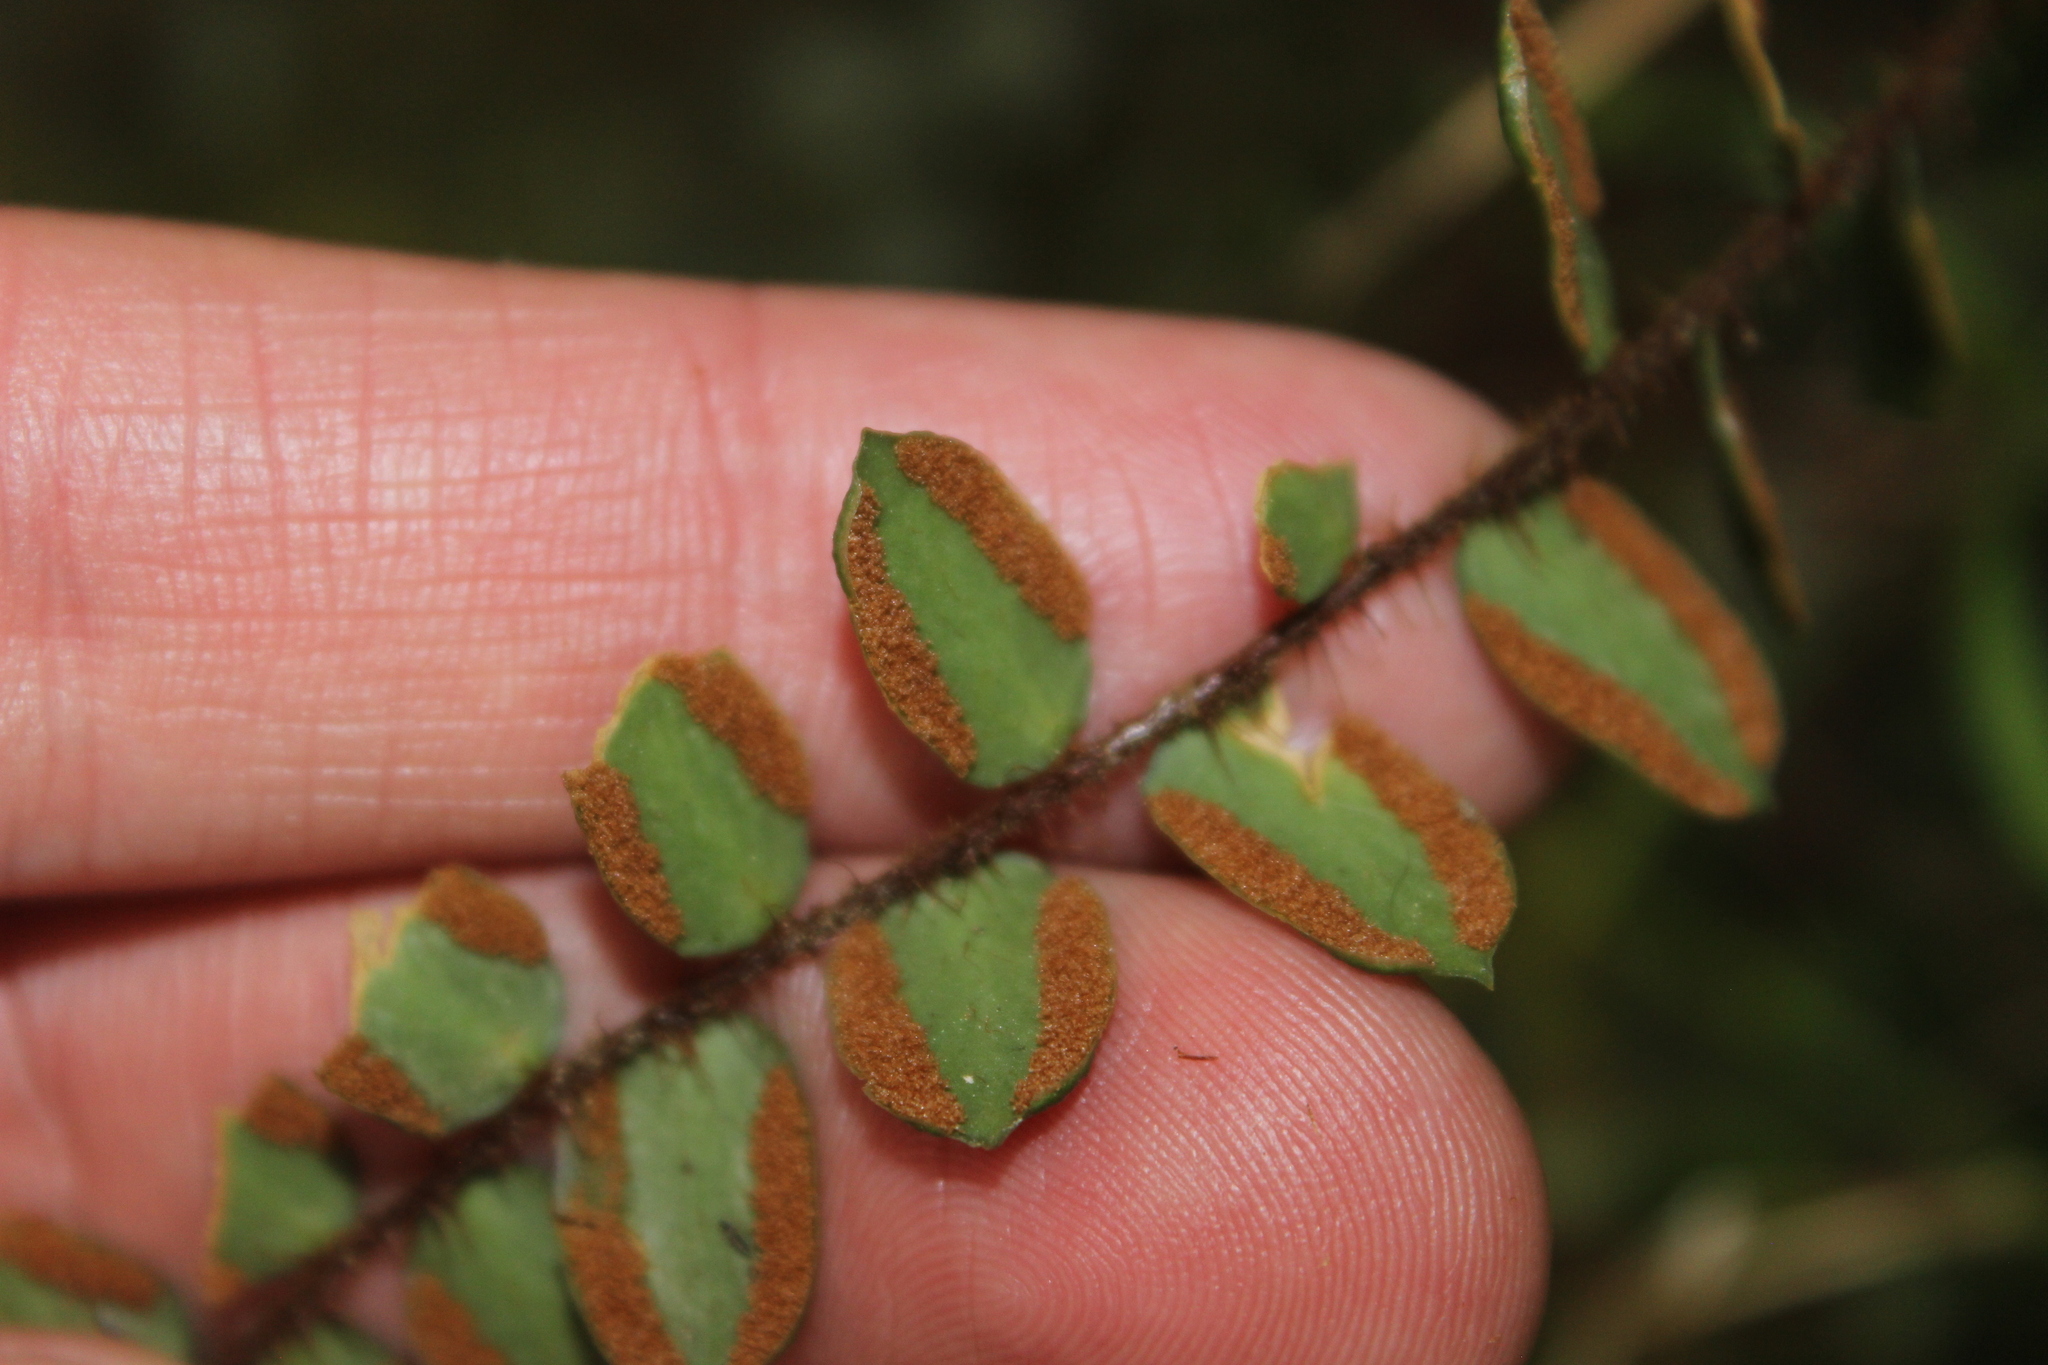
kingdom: Plantae
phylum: Tracheophyta
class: Polypodiopsida
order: Polypodiales
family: Pteridaceae
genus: Pellaea
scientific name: Pellaea rotundifolia
